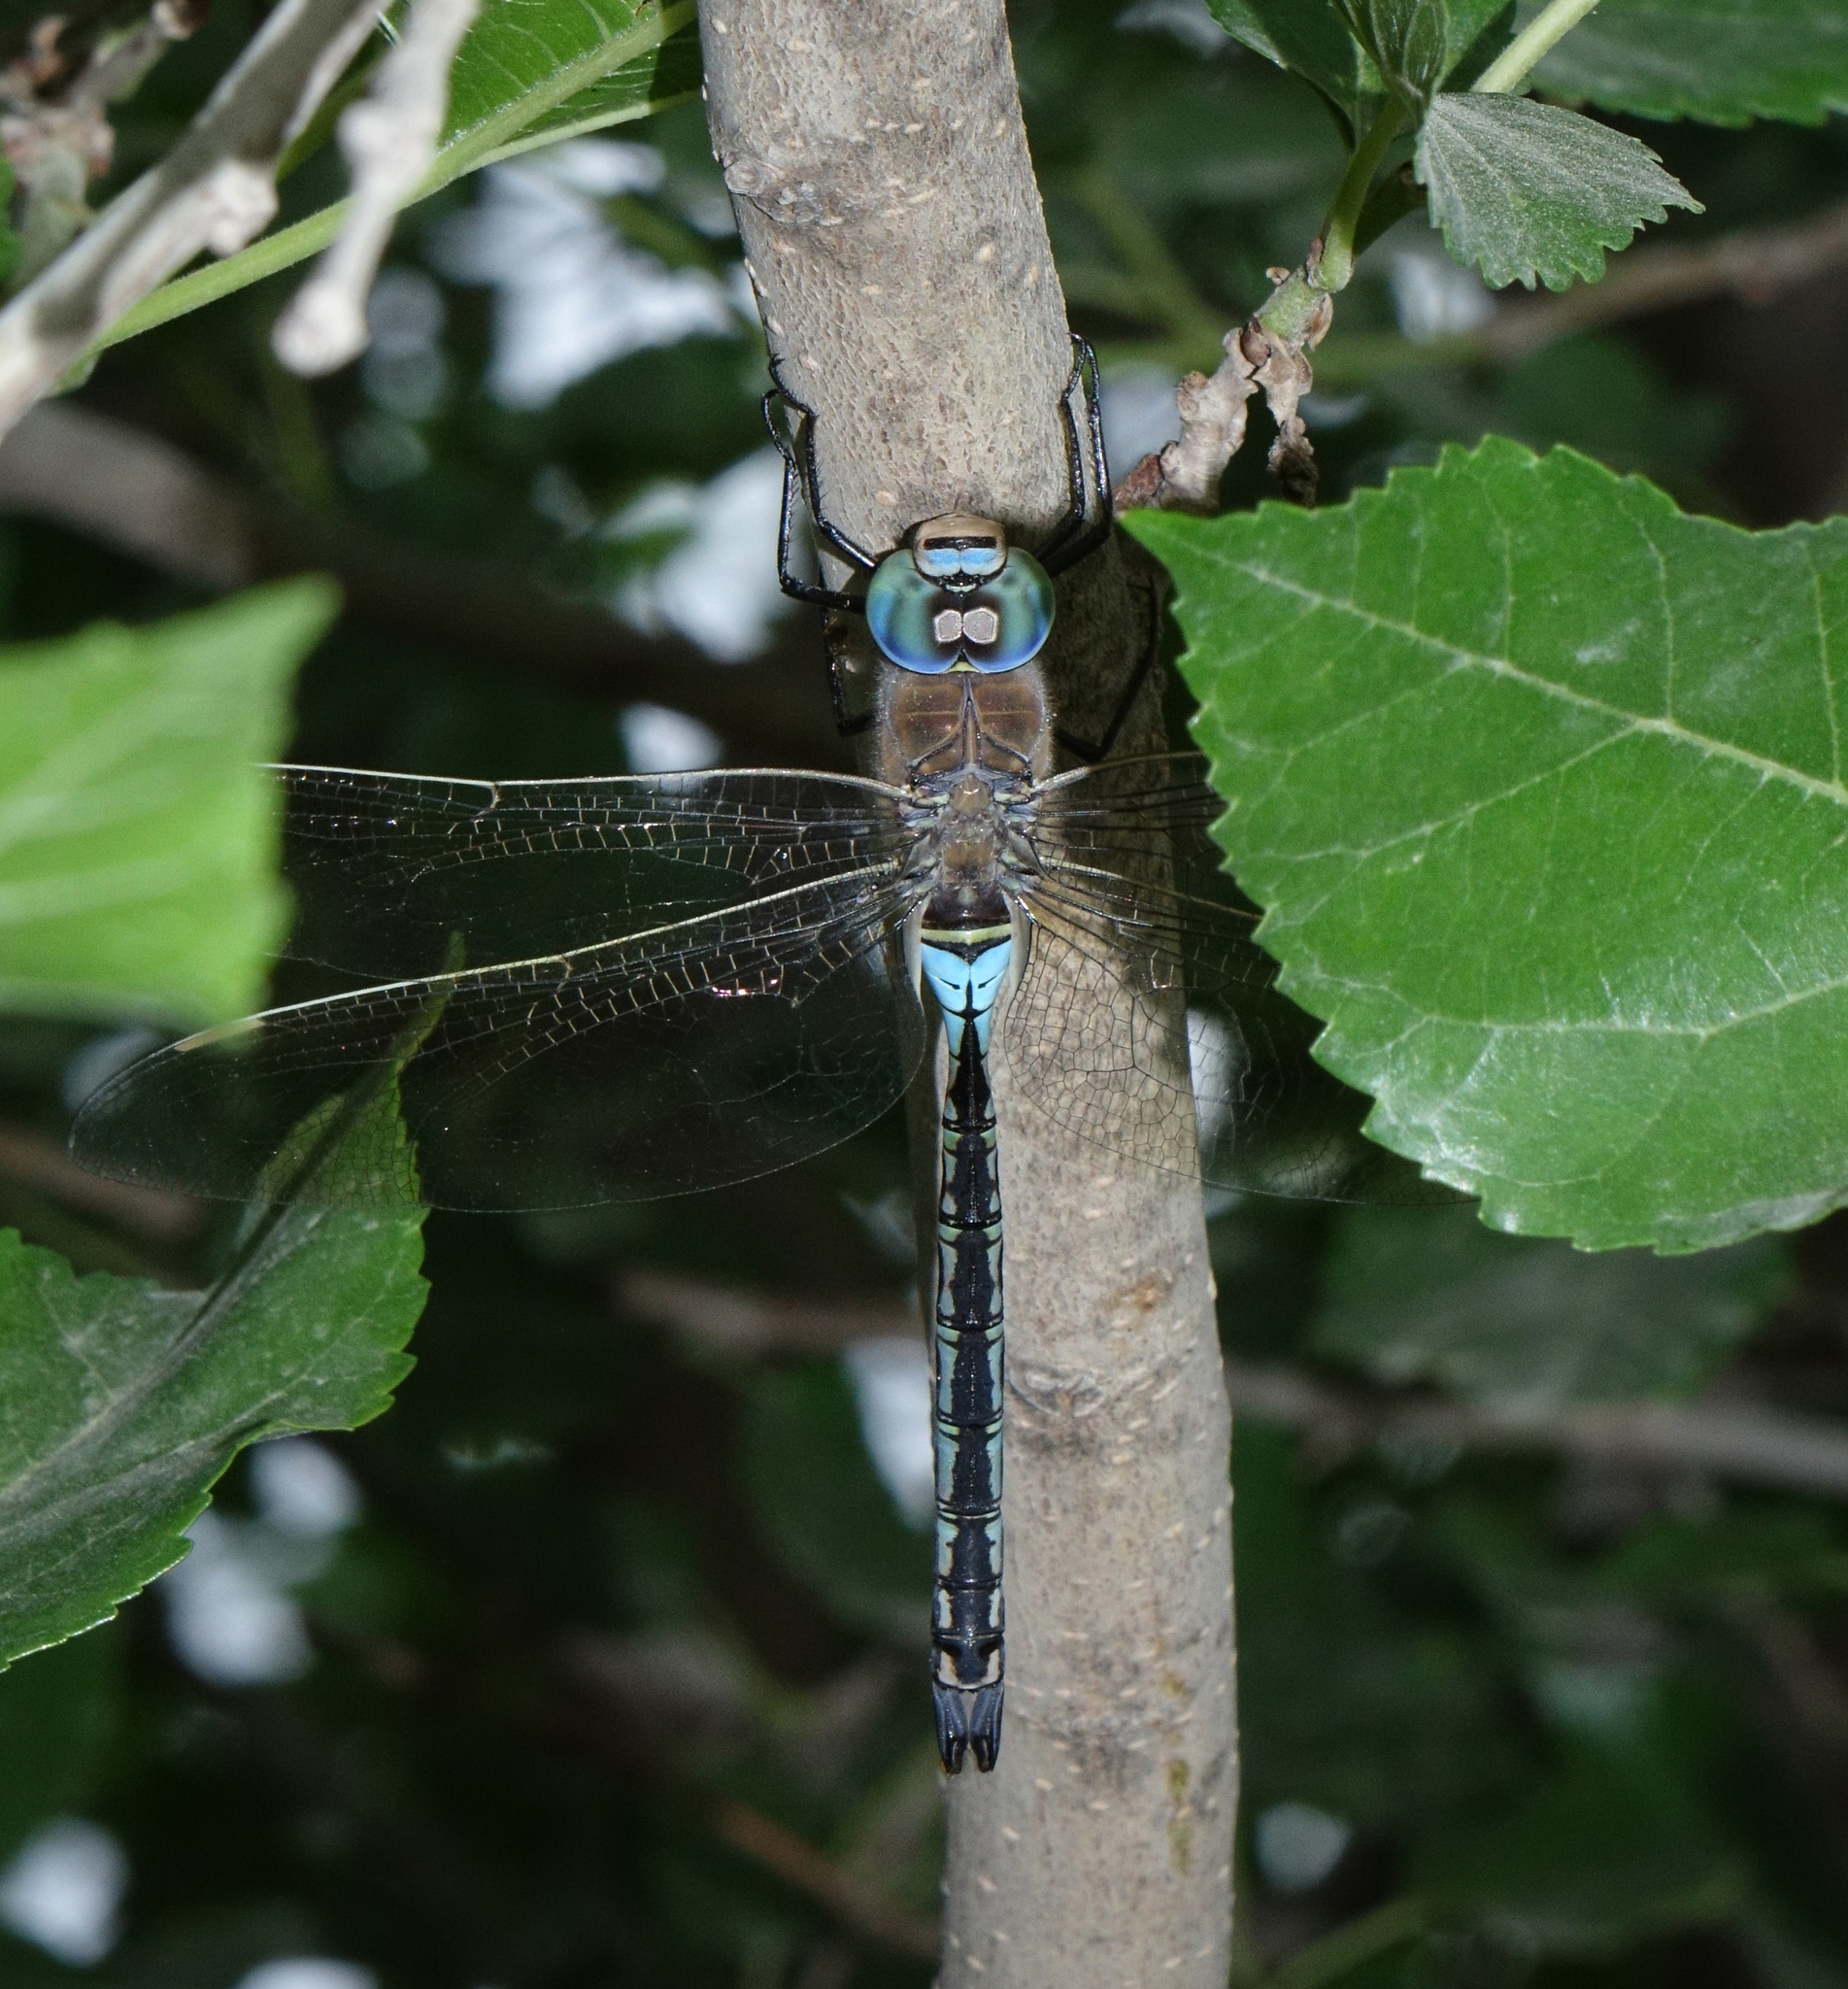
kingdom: Animalia
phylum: Arthropoda
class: Insecta
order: Odonata
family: Aeshnidae
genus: Anax
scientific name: Anax parthenope
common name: Lesser emperor
